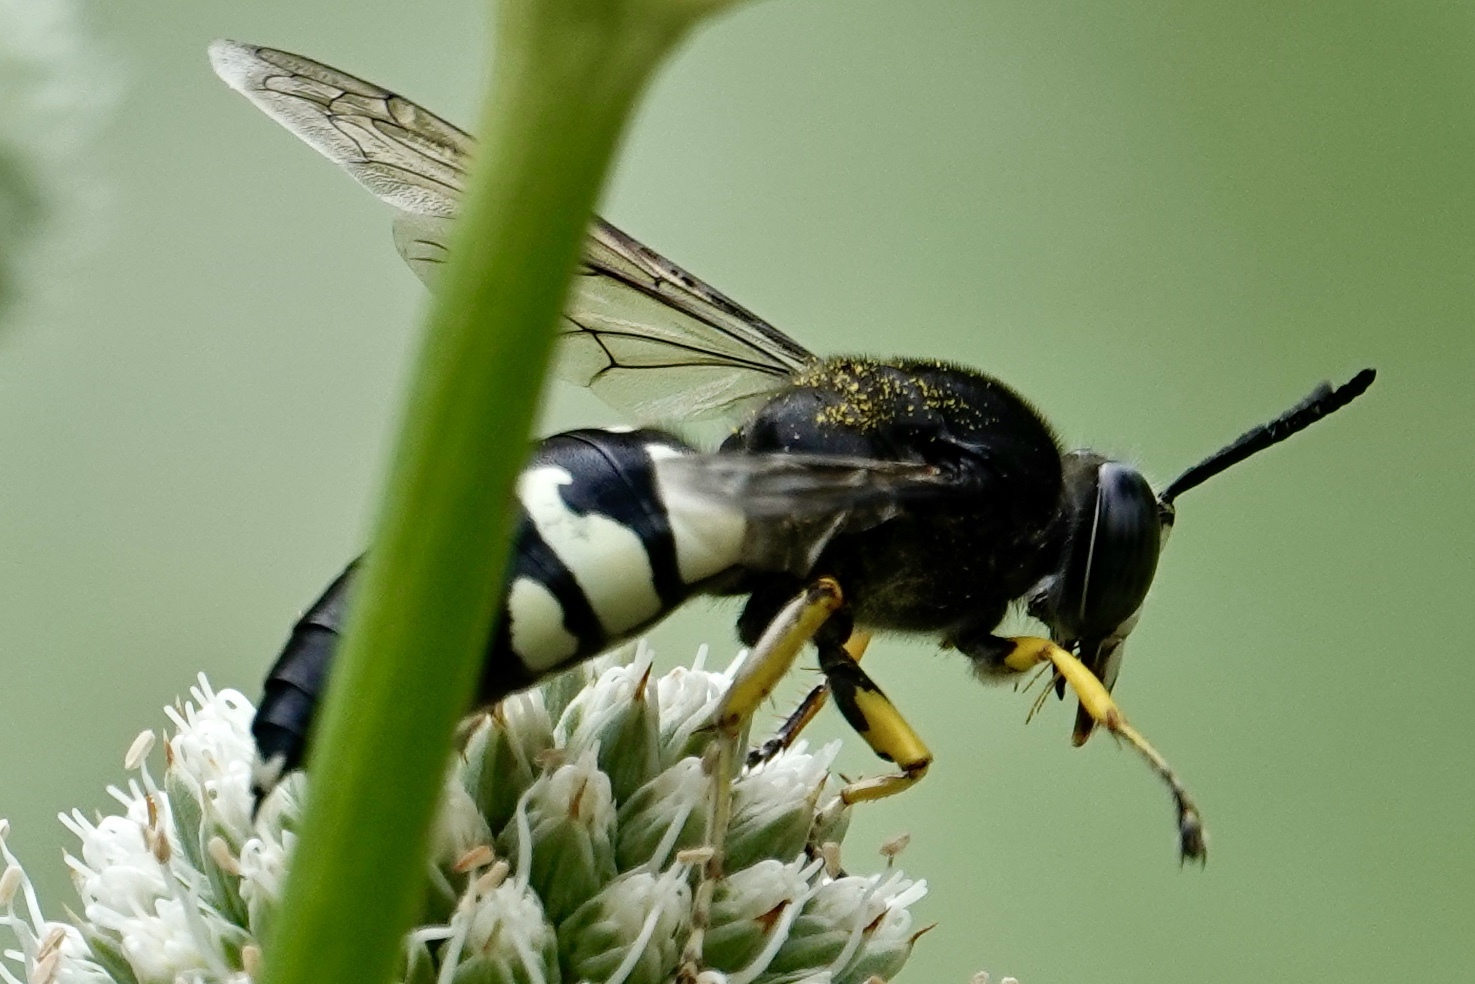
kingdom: Animalia
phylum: Arthropoda
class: Insecta
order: Hymenoptera
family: Crabronidae
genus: Stictia
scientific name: Stictia carolina
